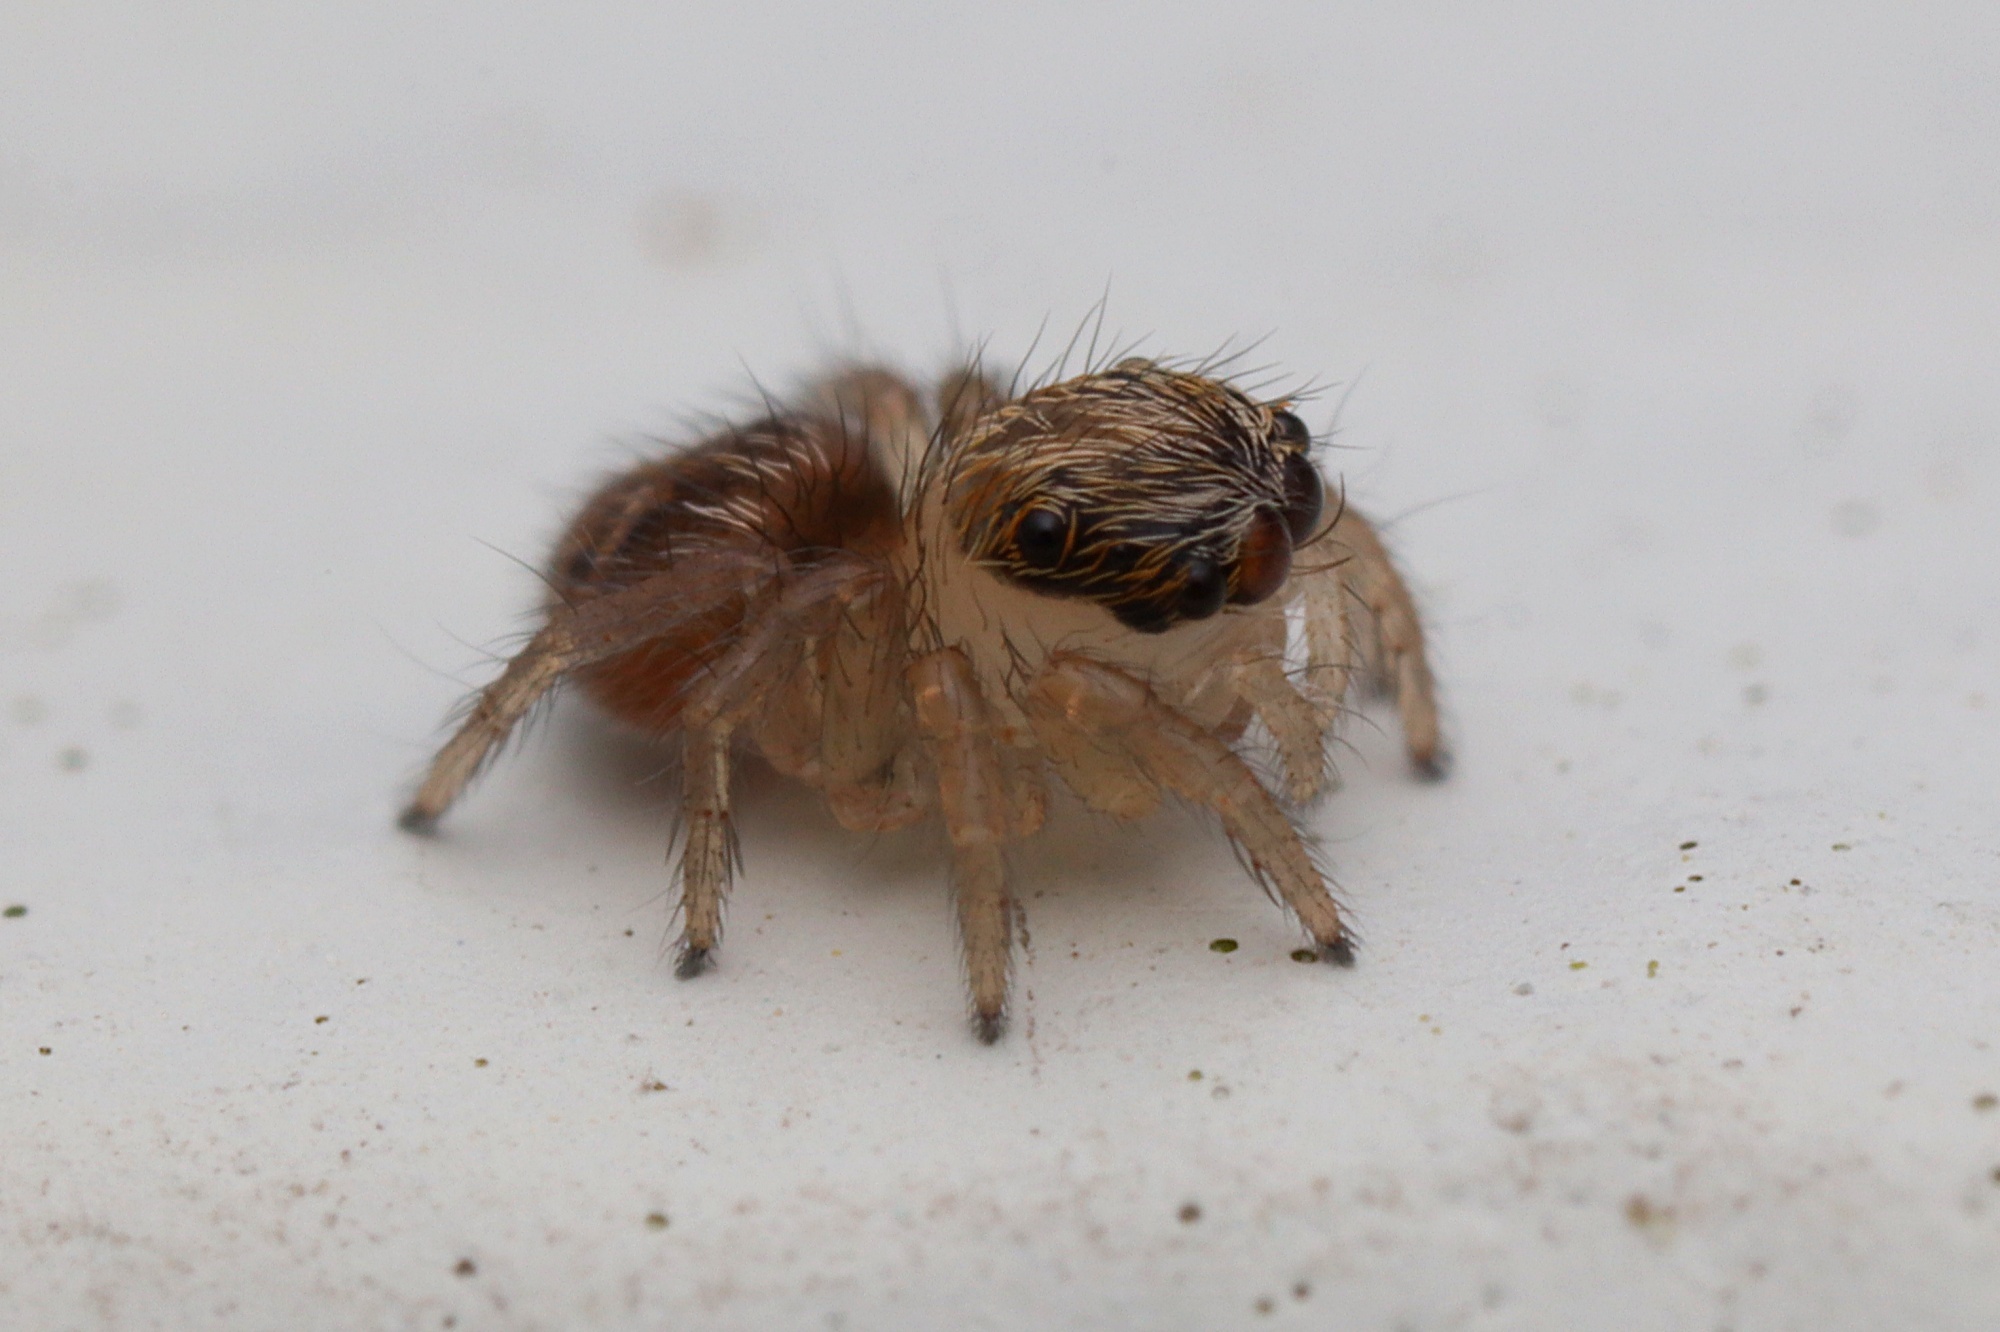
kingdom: Animalia
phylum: Arthropoda
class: Arachnida
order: Araneae
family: Salticidae
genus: Maratus
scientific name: Maratus griseus
